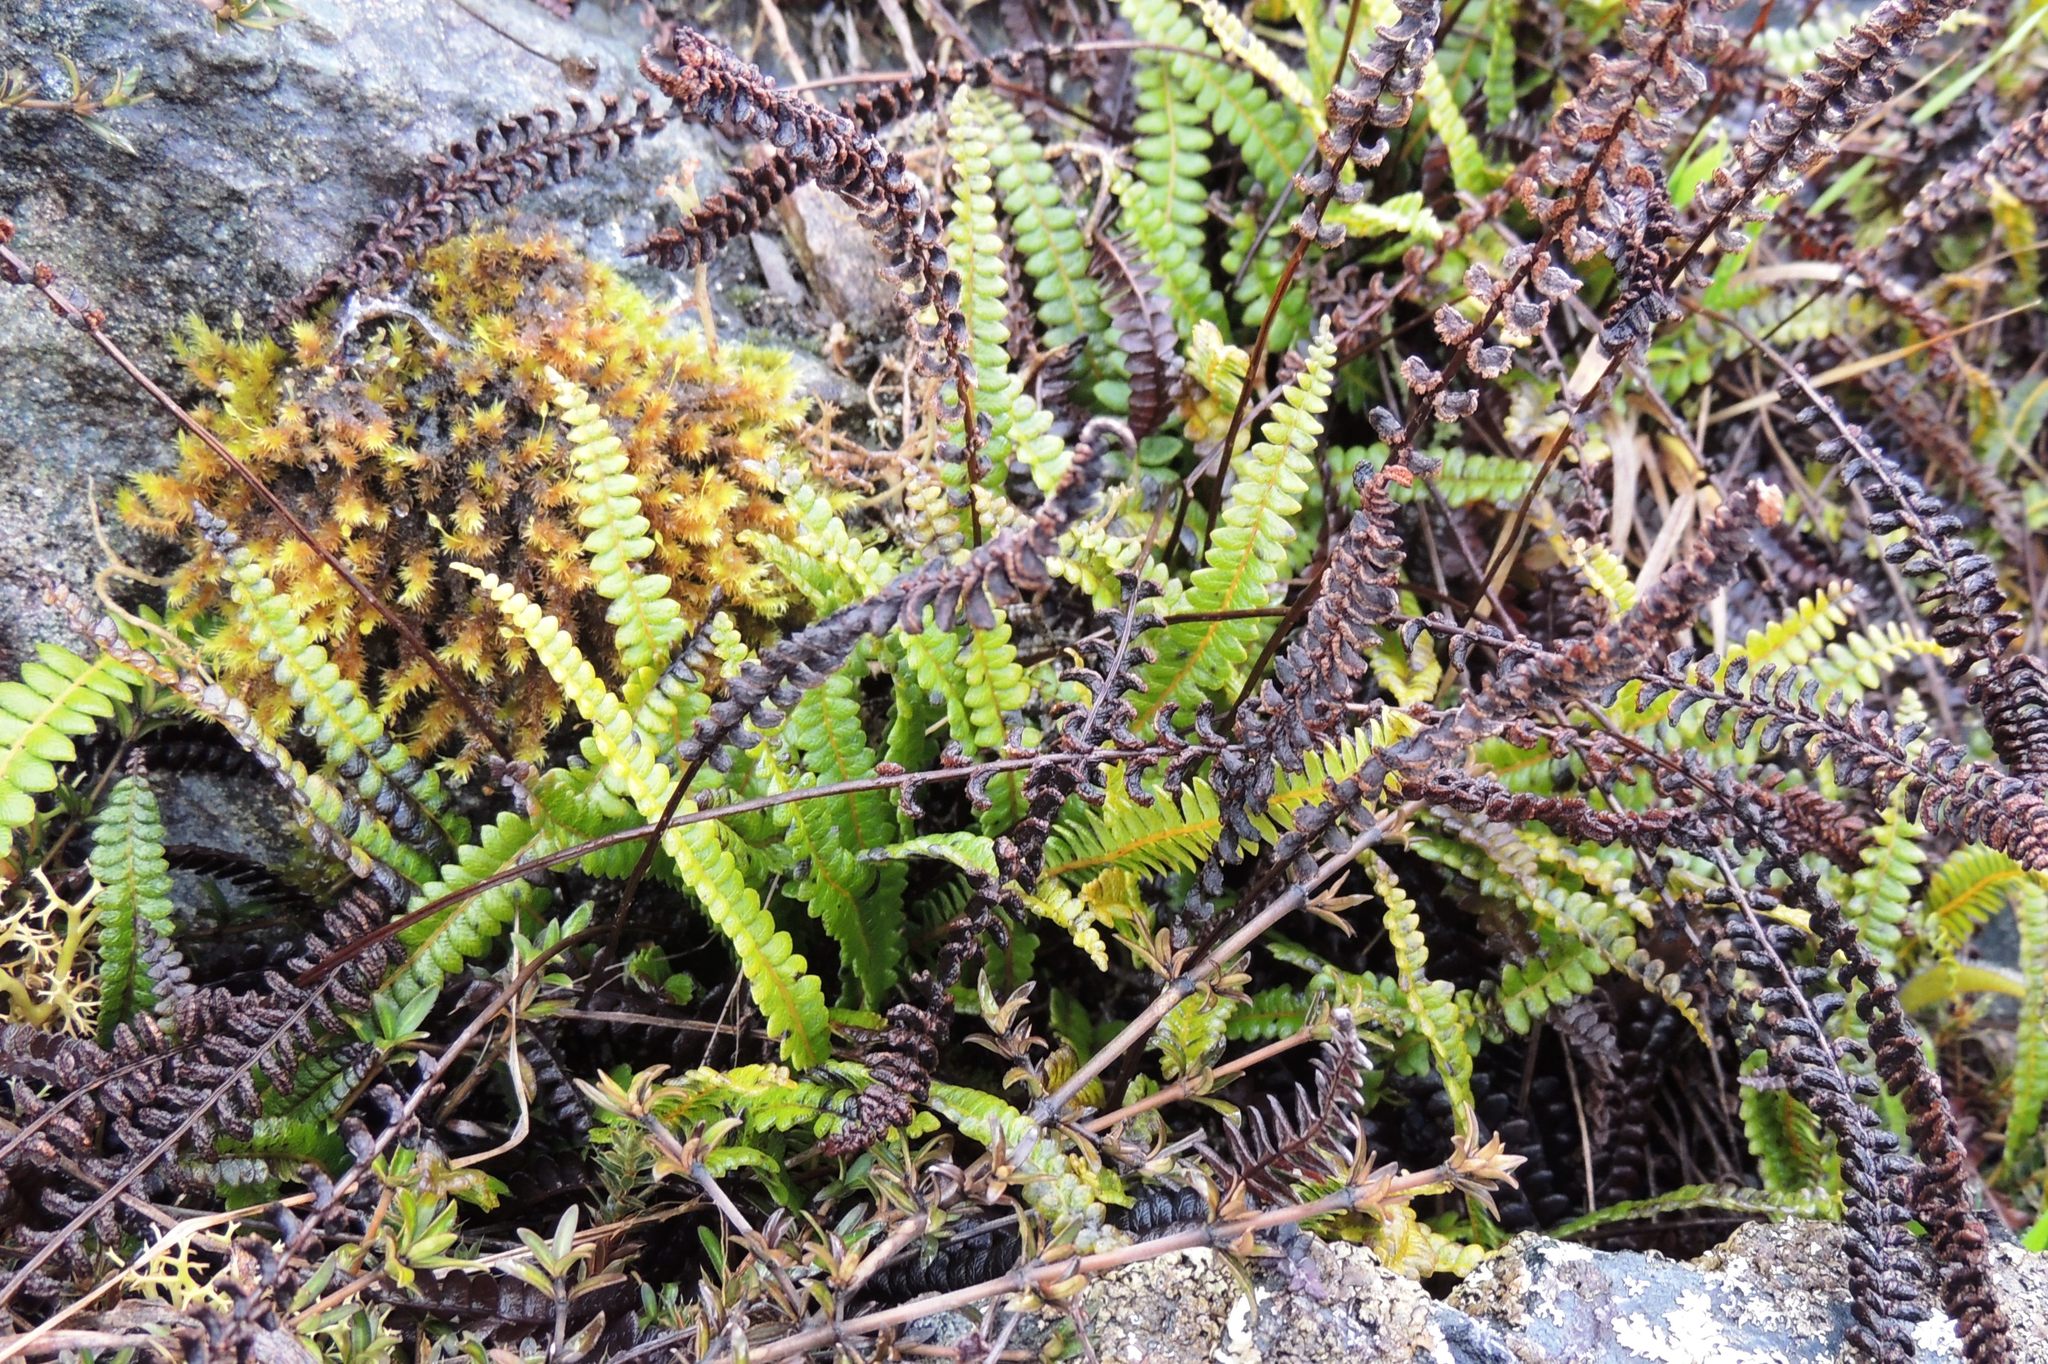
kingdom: Plantae
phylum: Tracheophyta
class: Polypodiopsida
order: Polypodiales
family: Blechnaceae
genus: Austroblechnum
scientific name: Austroblechnum penna-marina
